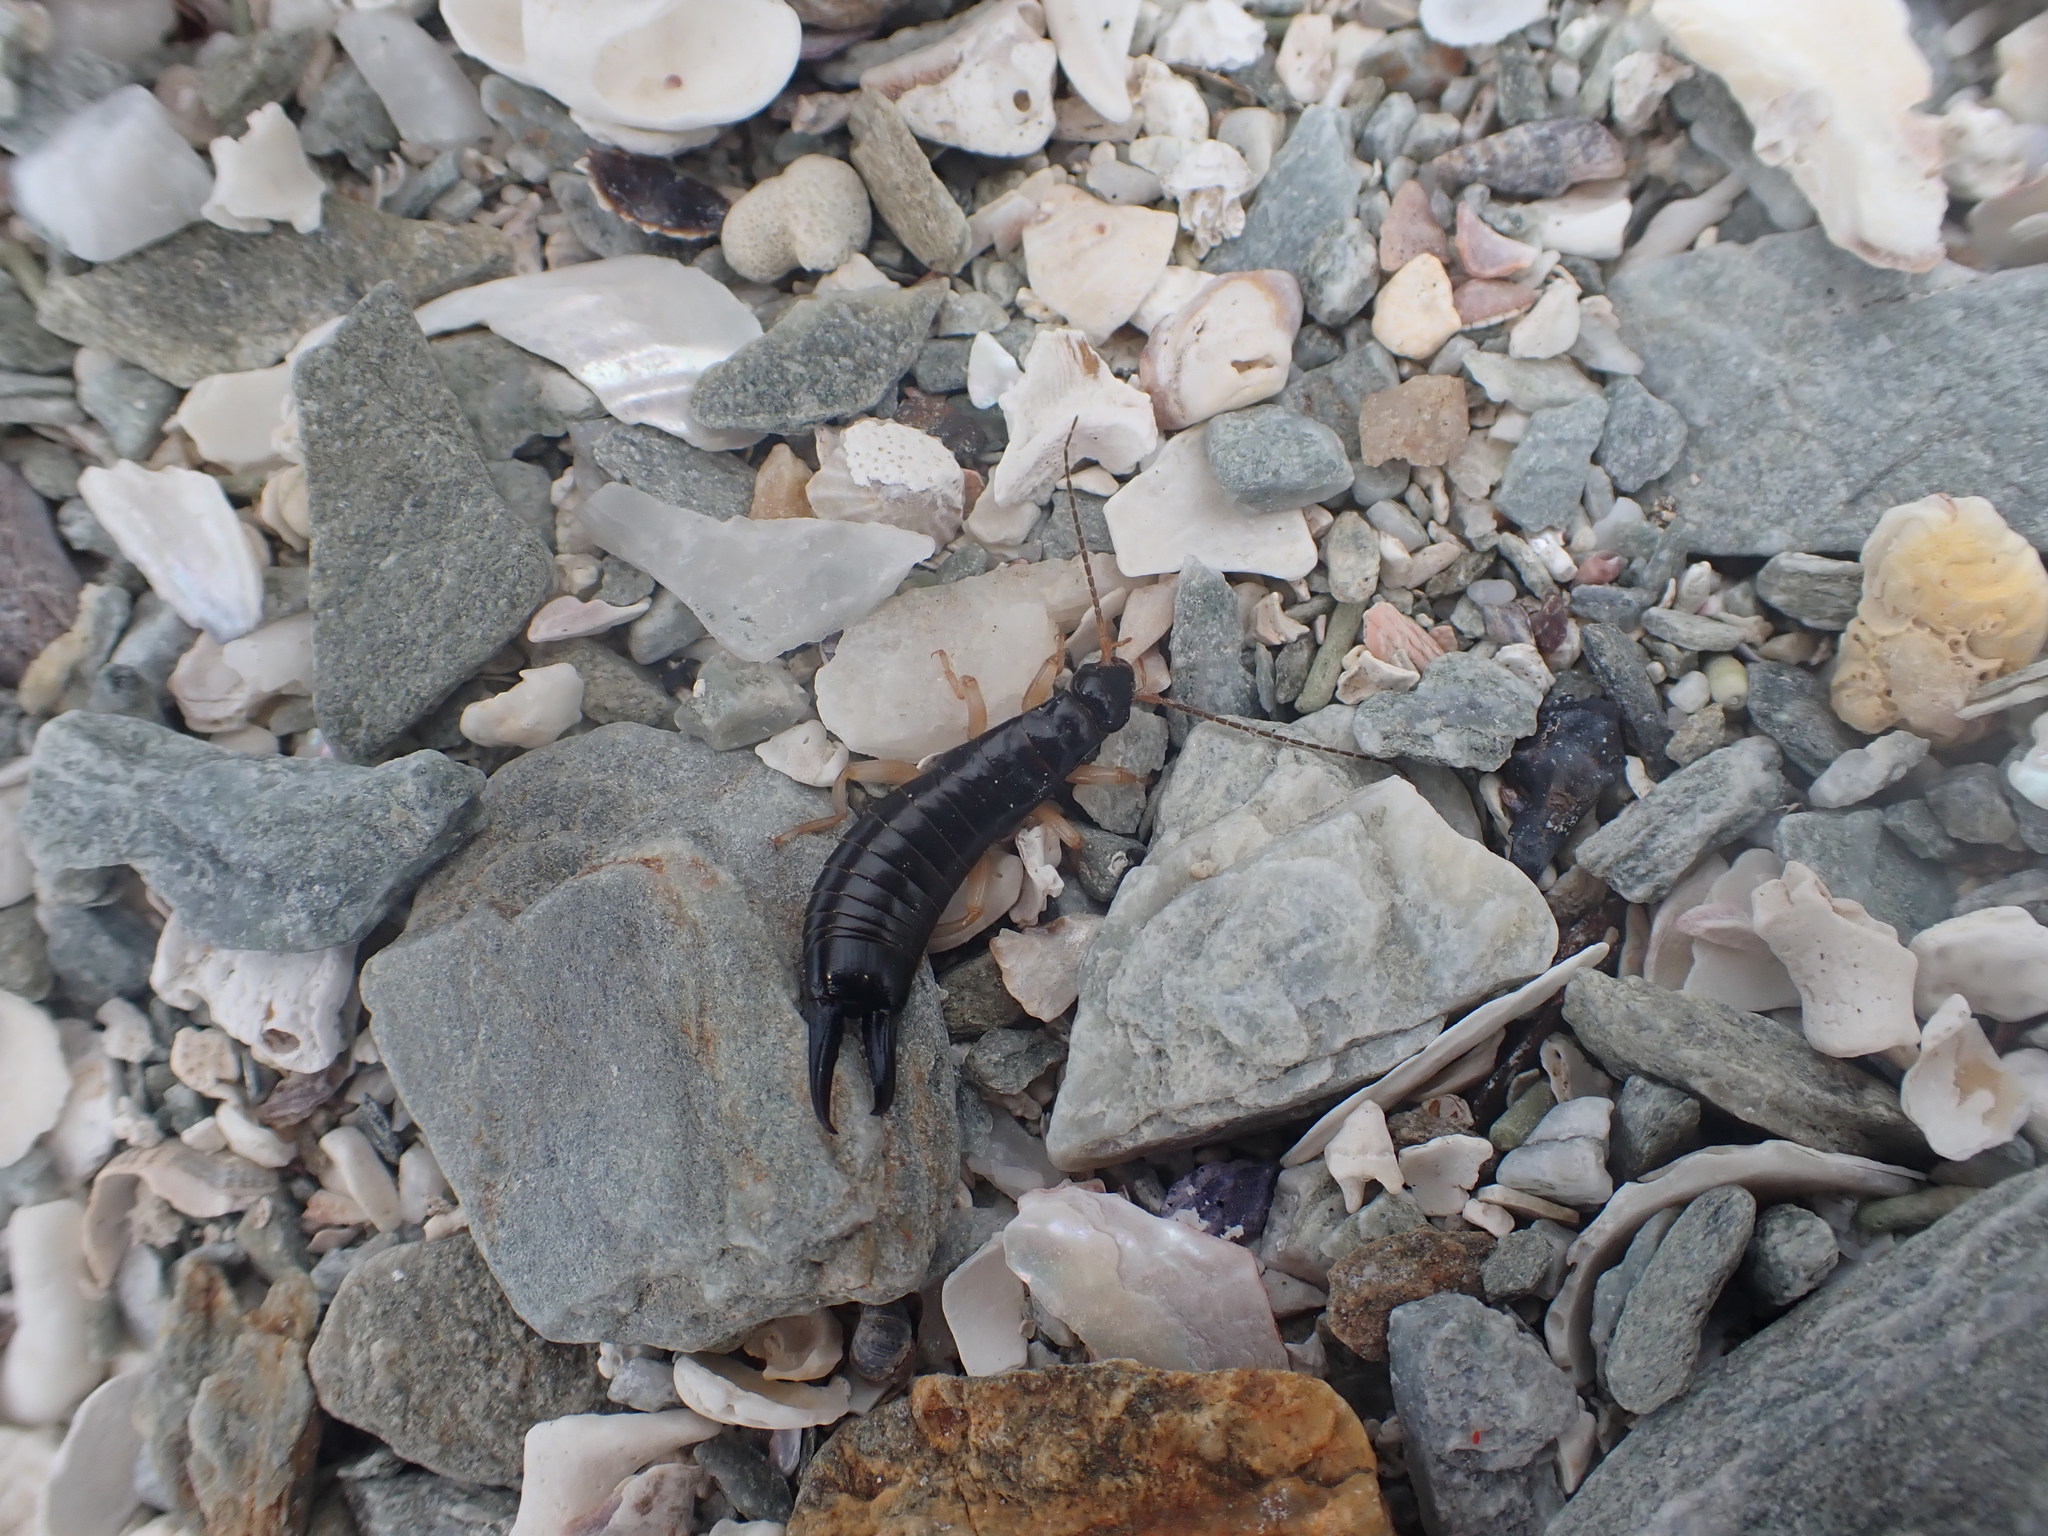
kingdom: Animalia
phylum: Arthropoda
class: Insecta
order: Dermaptera
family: Anisolabididae
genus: Anisolabis
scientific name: Anisolabis littorea
